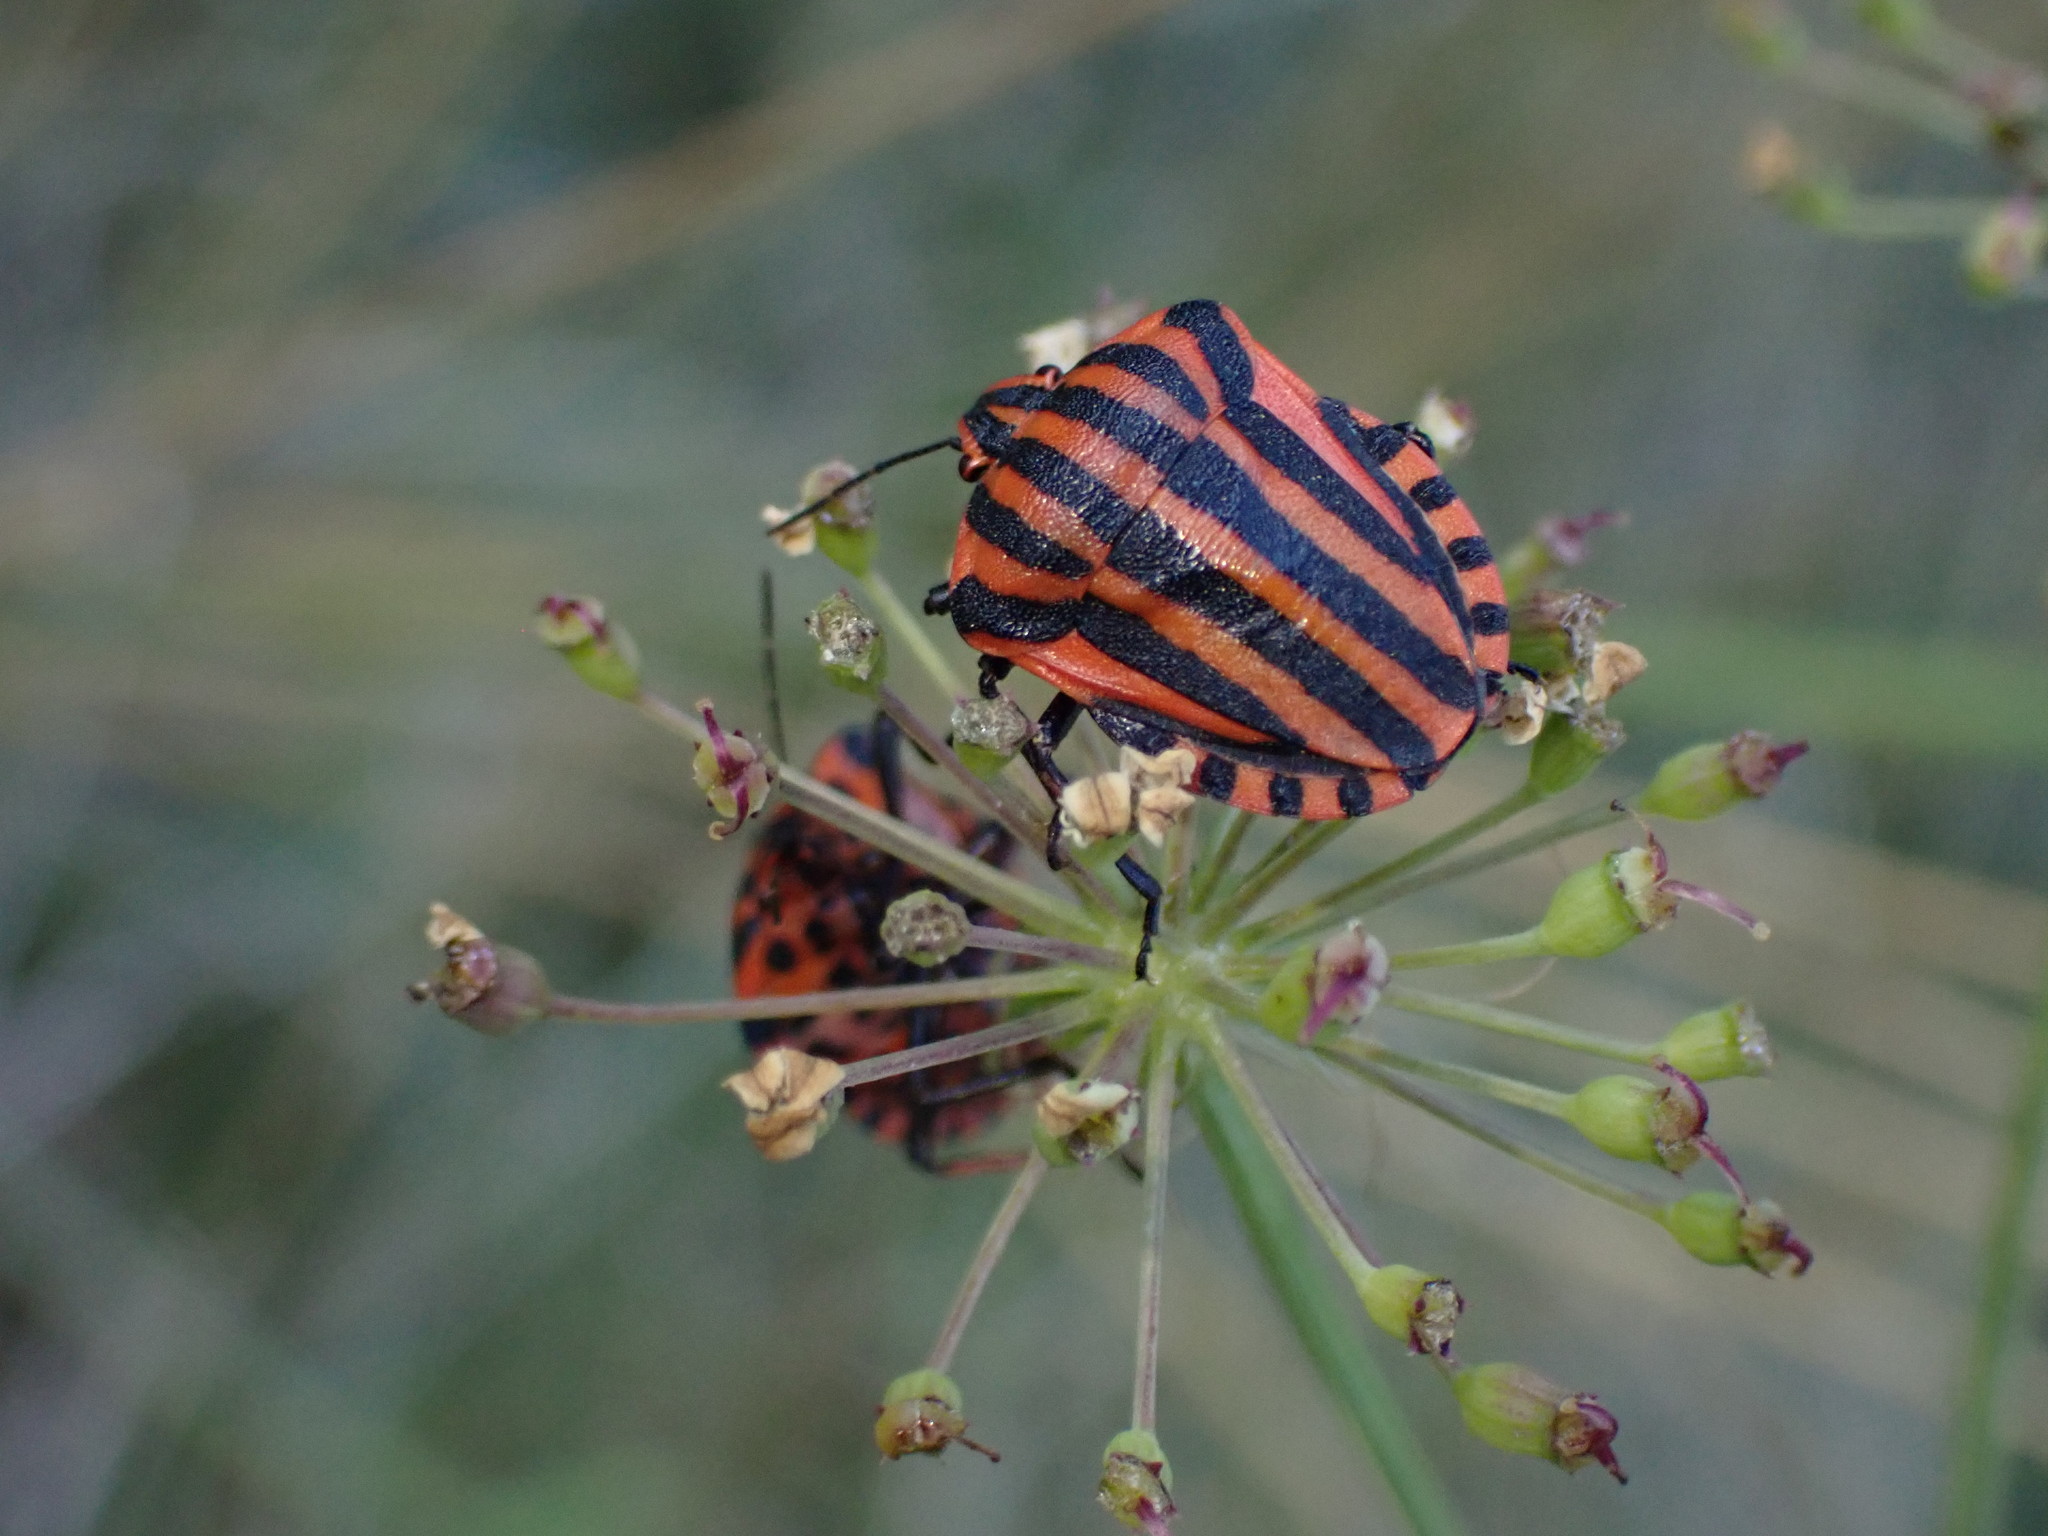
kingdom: Animalia
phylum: Arthropoda
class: Insecta
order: Hemiptera
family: Pentatomidae
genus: Graphosoma
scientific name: Graphosoma italicum
